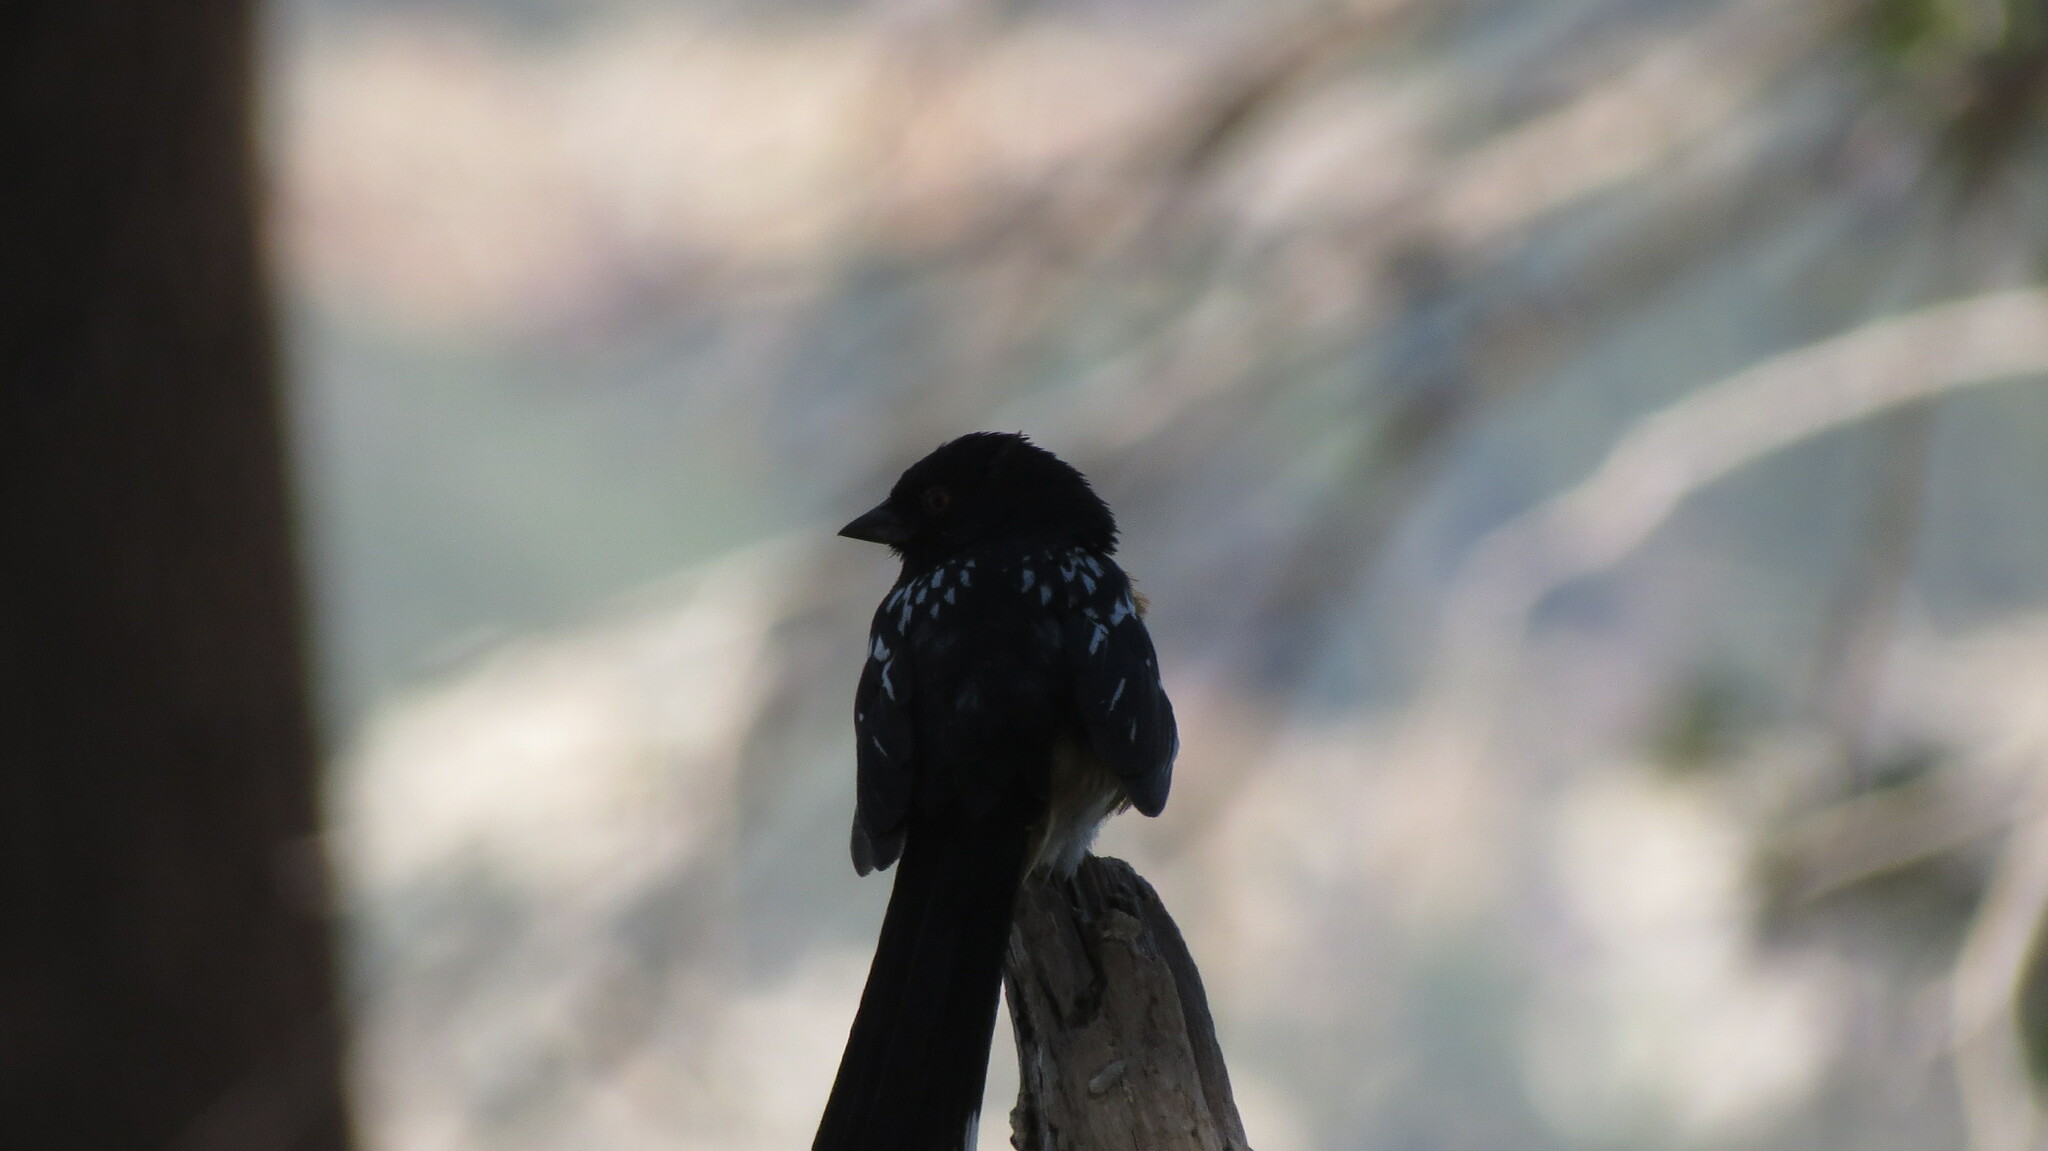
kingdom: Animalia
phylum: Chordata
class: Aves
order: Passeriformes
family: Passerellidae
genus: Pipilo
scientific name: Pipilo maculatus
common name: Spotted towhee
